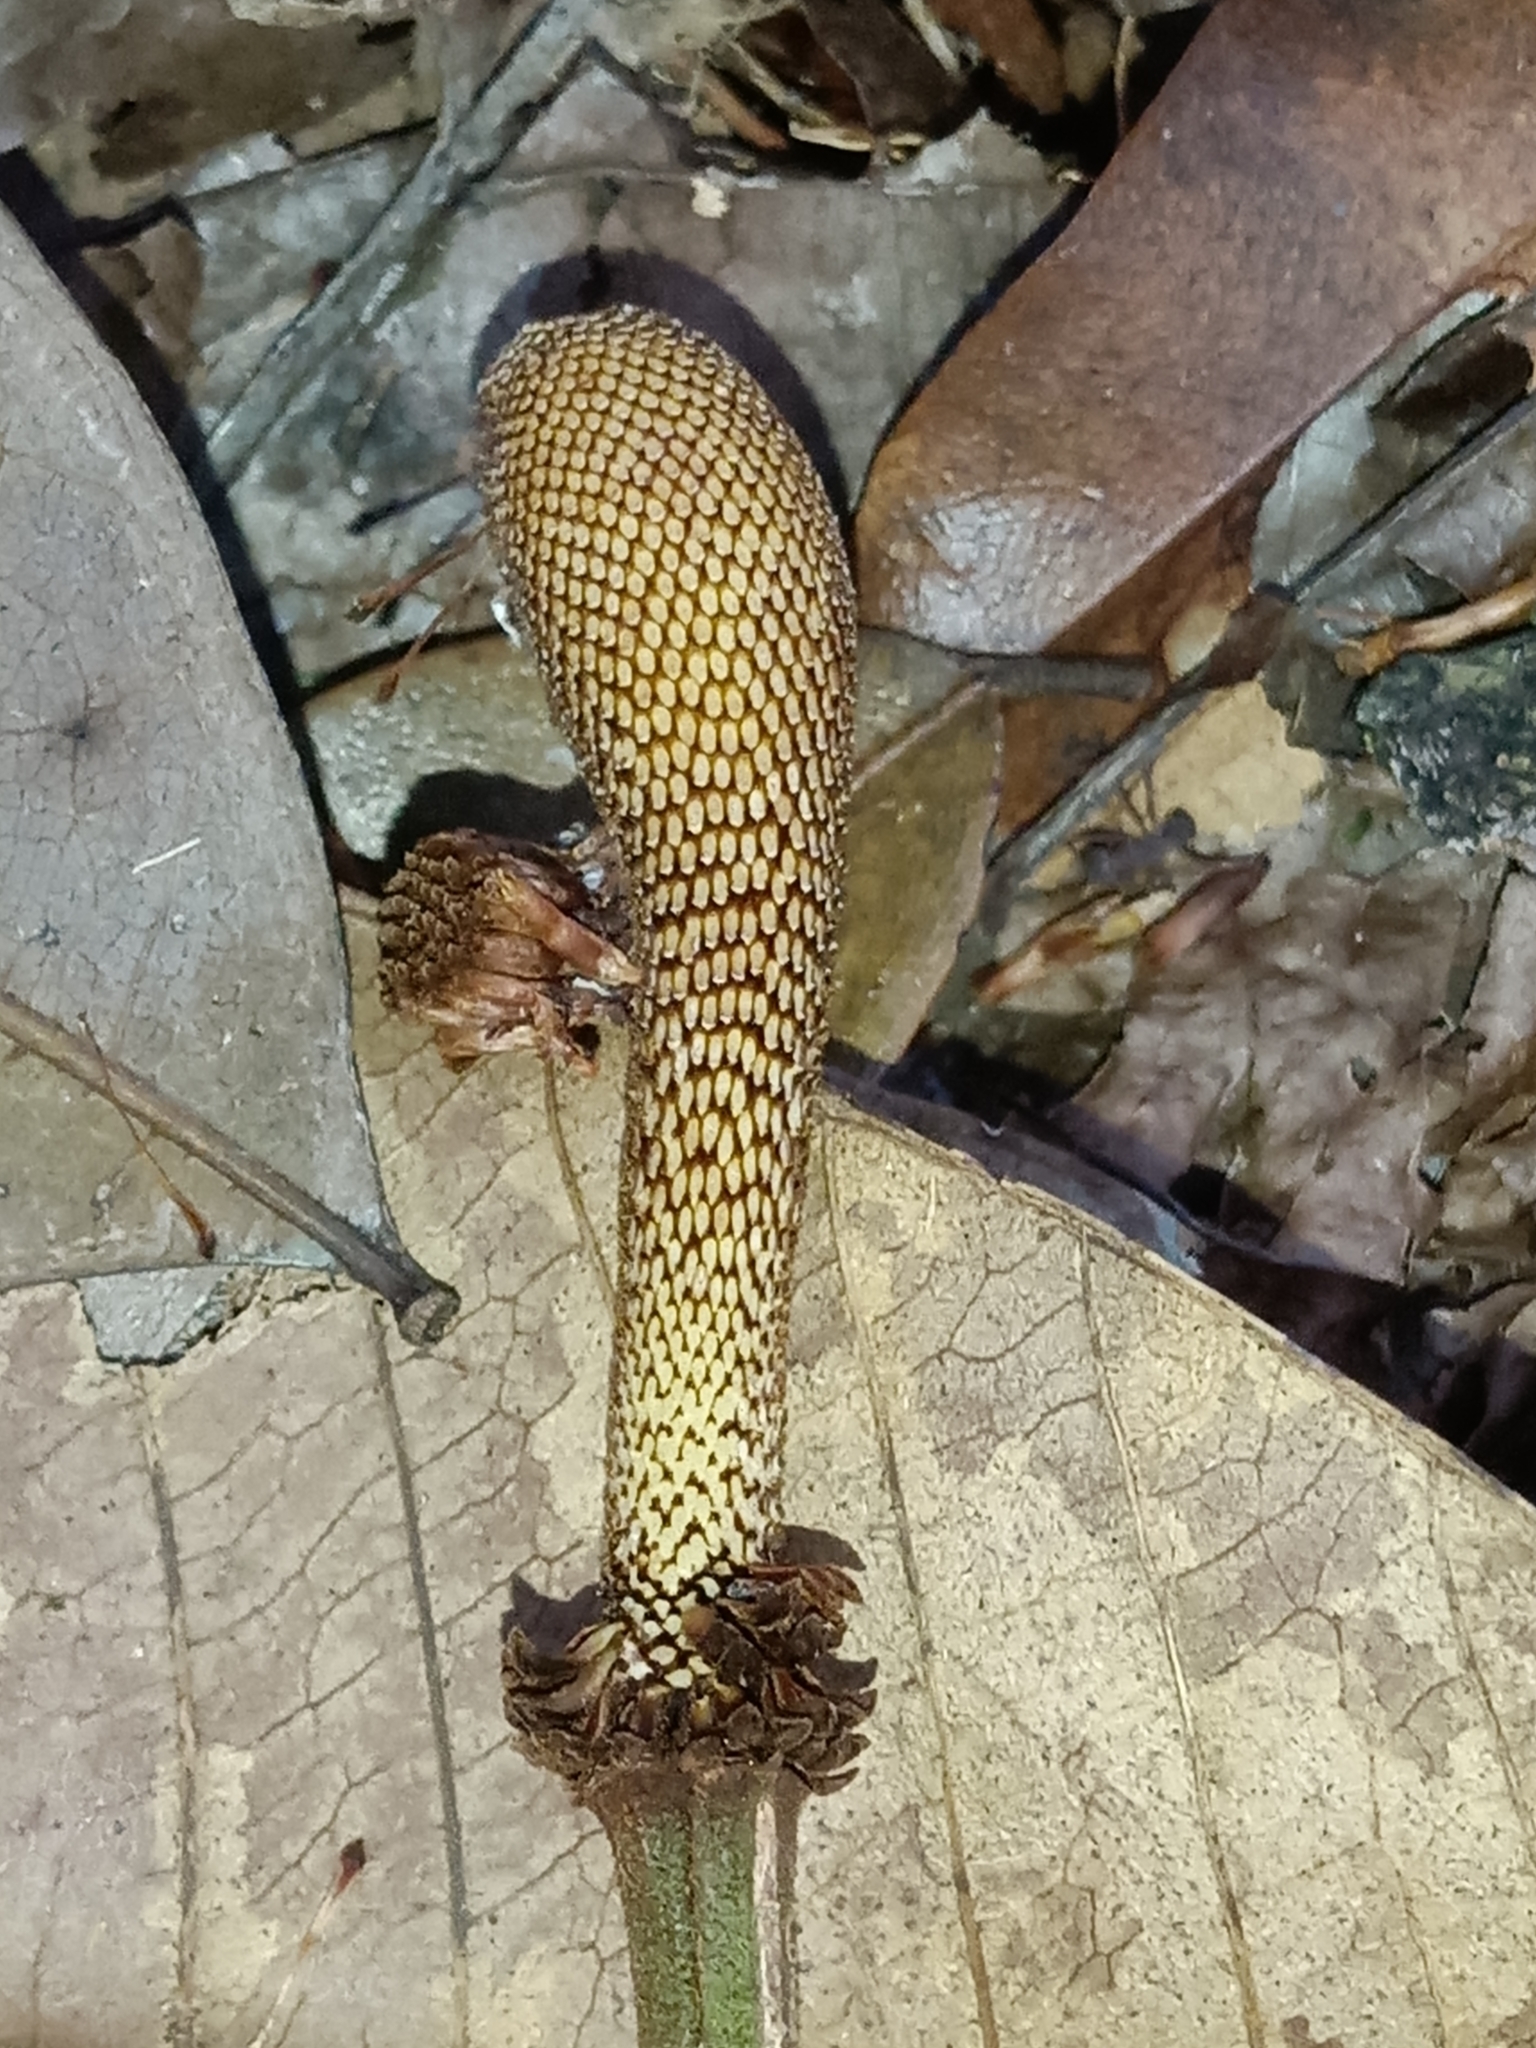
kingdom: Plantae
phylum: Tracheophyta
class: Magnoliopsida
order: Fabales
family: Fabaceae
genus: Parkia
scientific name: Parkia nitida
